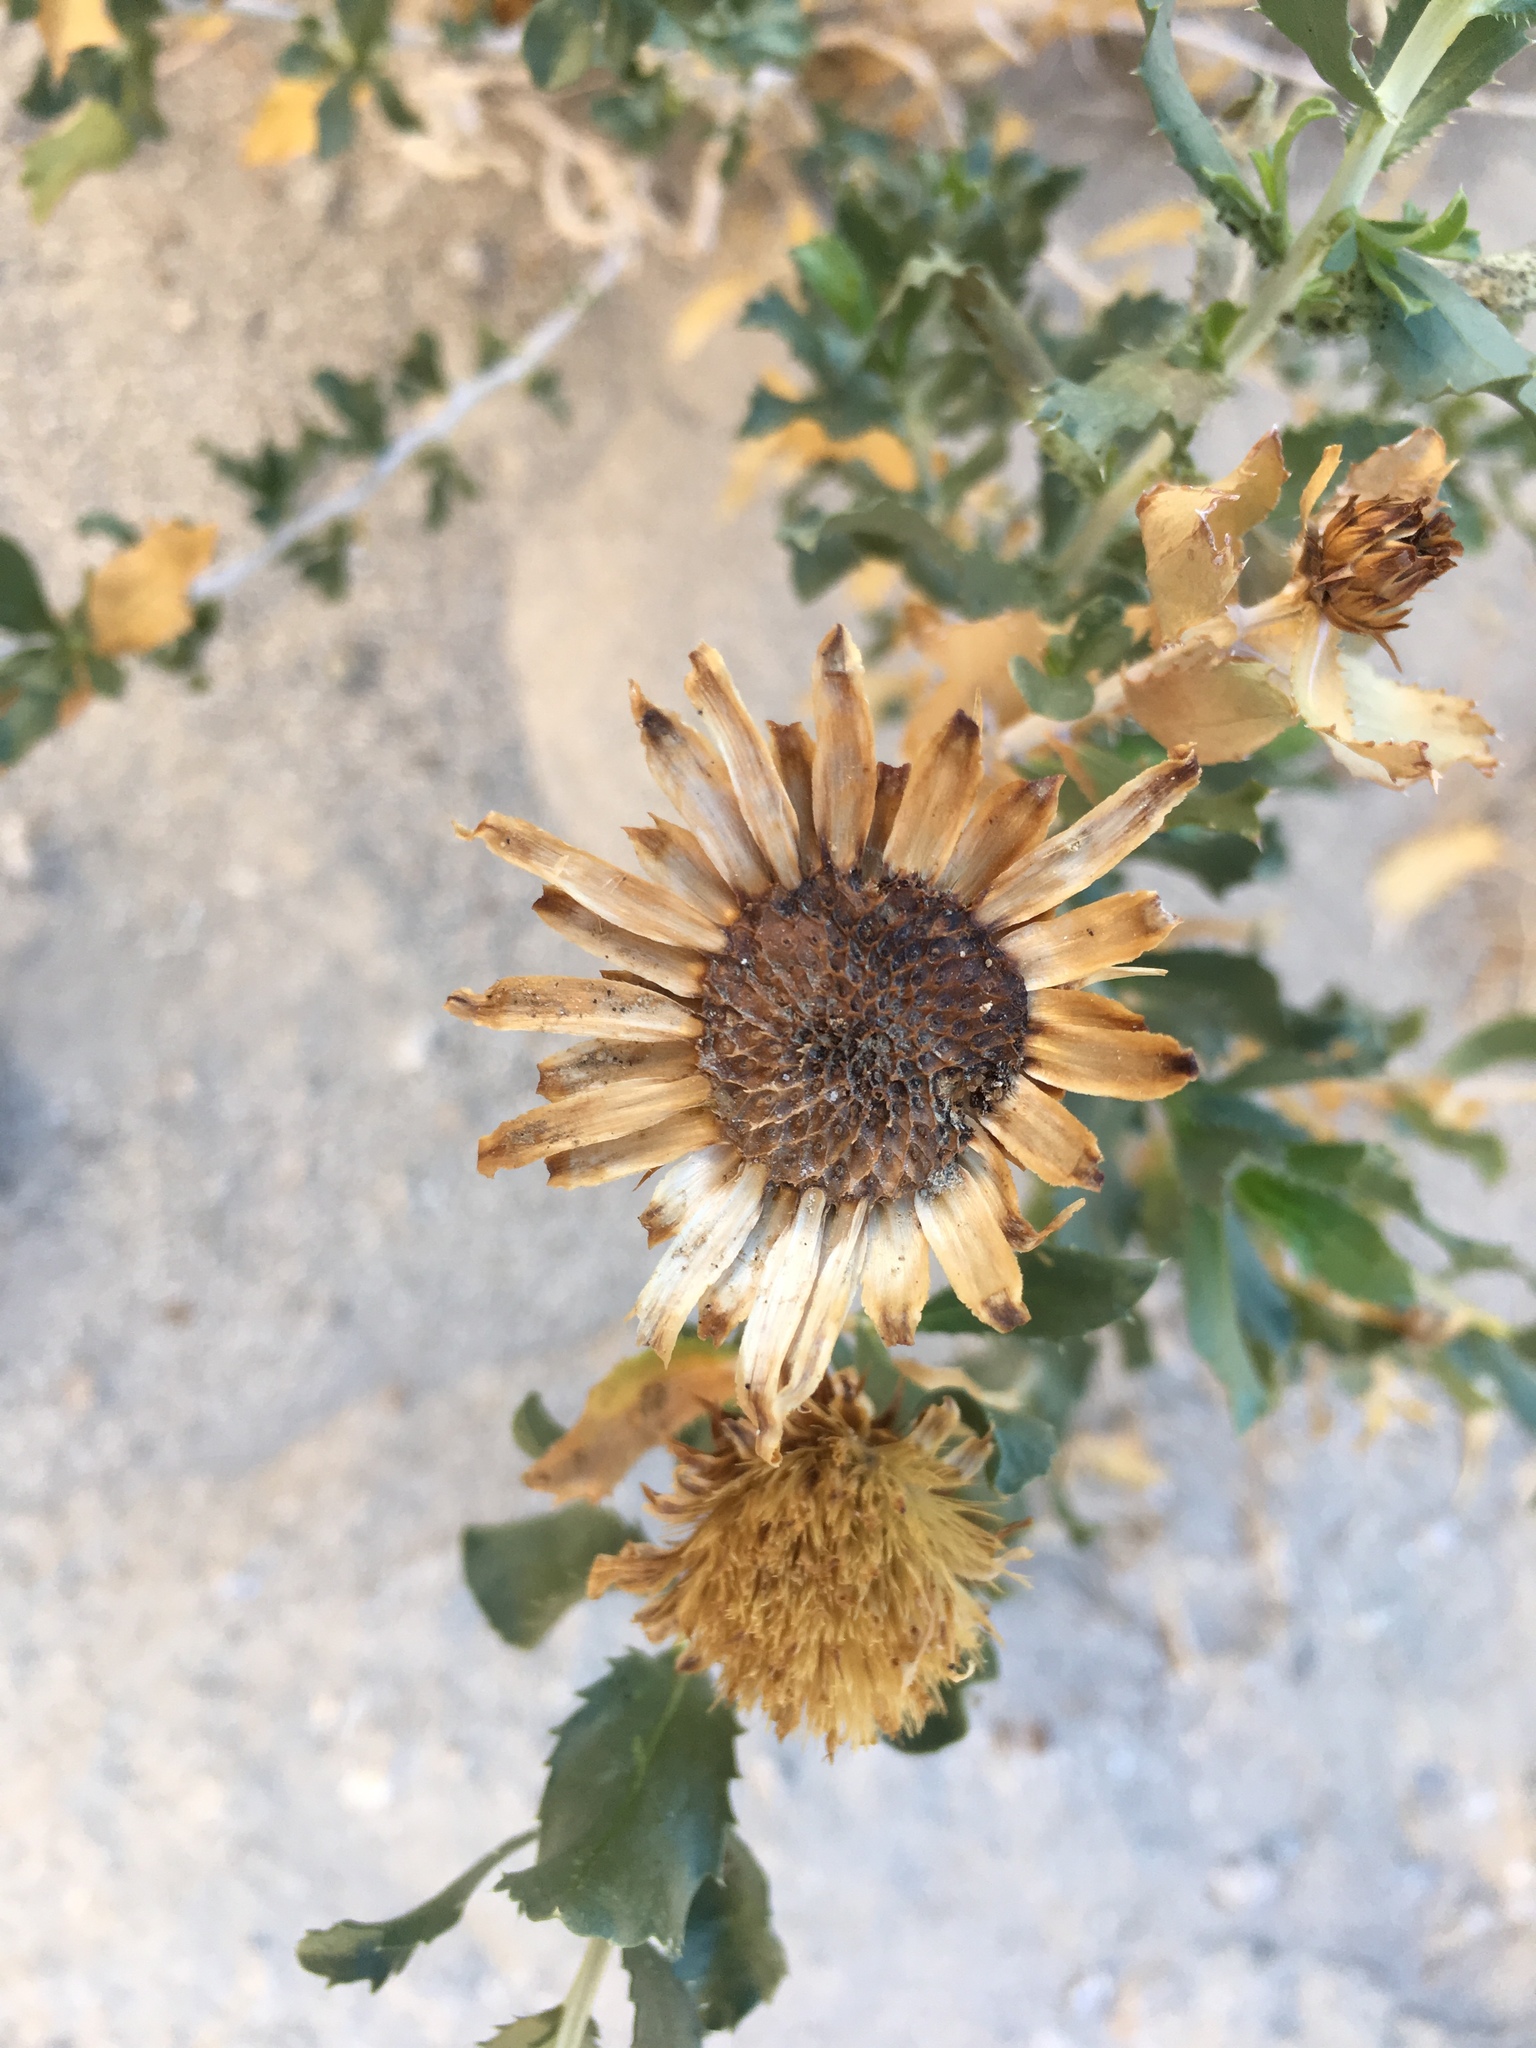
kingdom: Plantae
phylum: Tracheophyta
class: Magnoliopsida
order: Asterales
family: Asteraceae
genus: Xylorhiza
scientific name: Xylorhiza orcuttii
